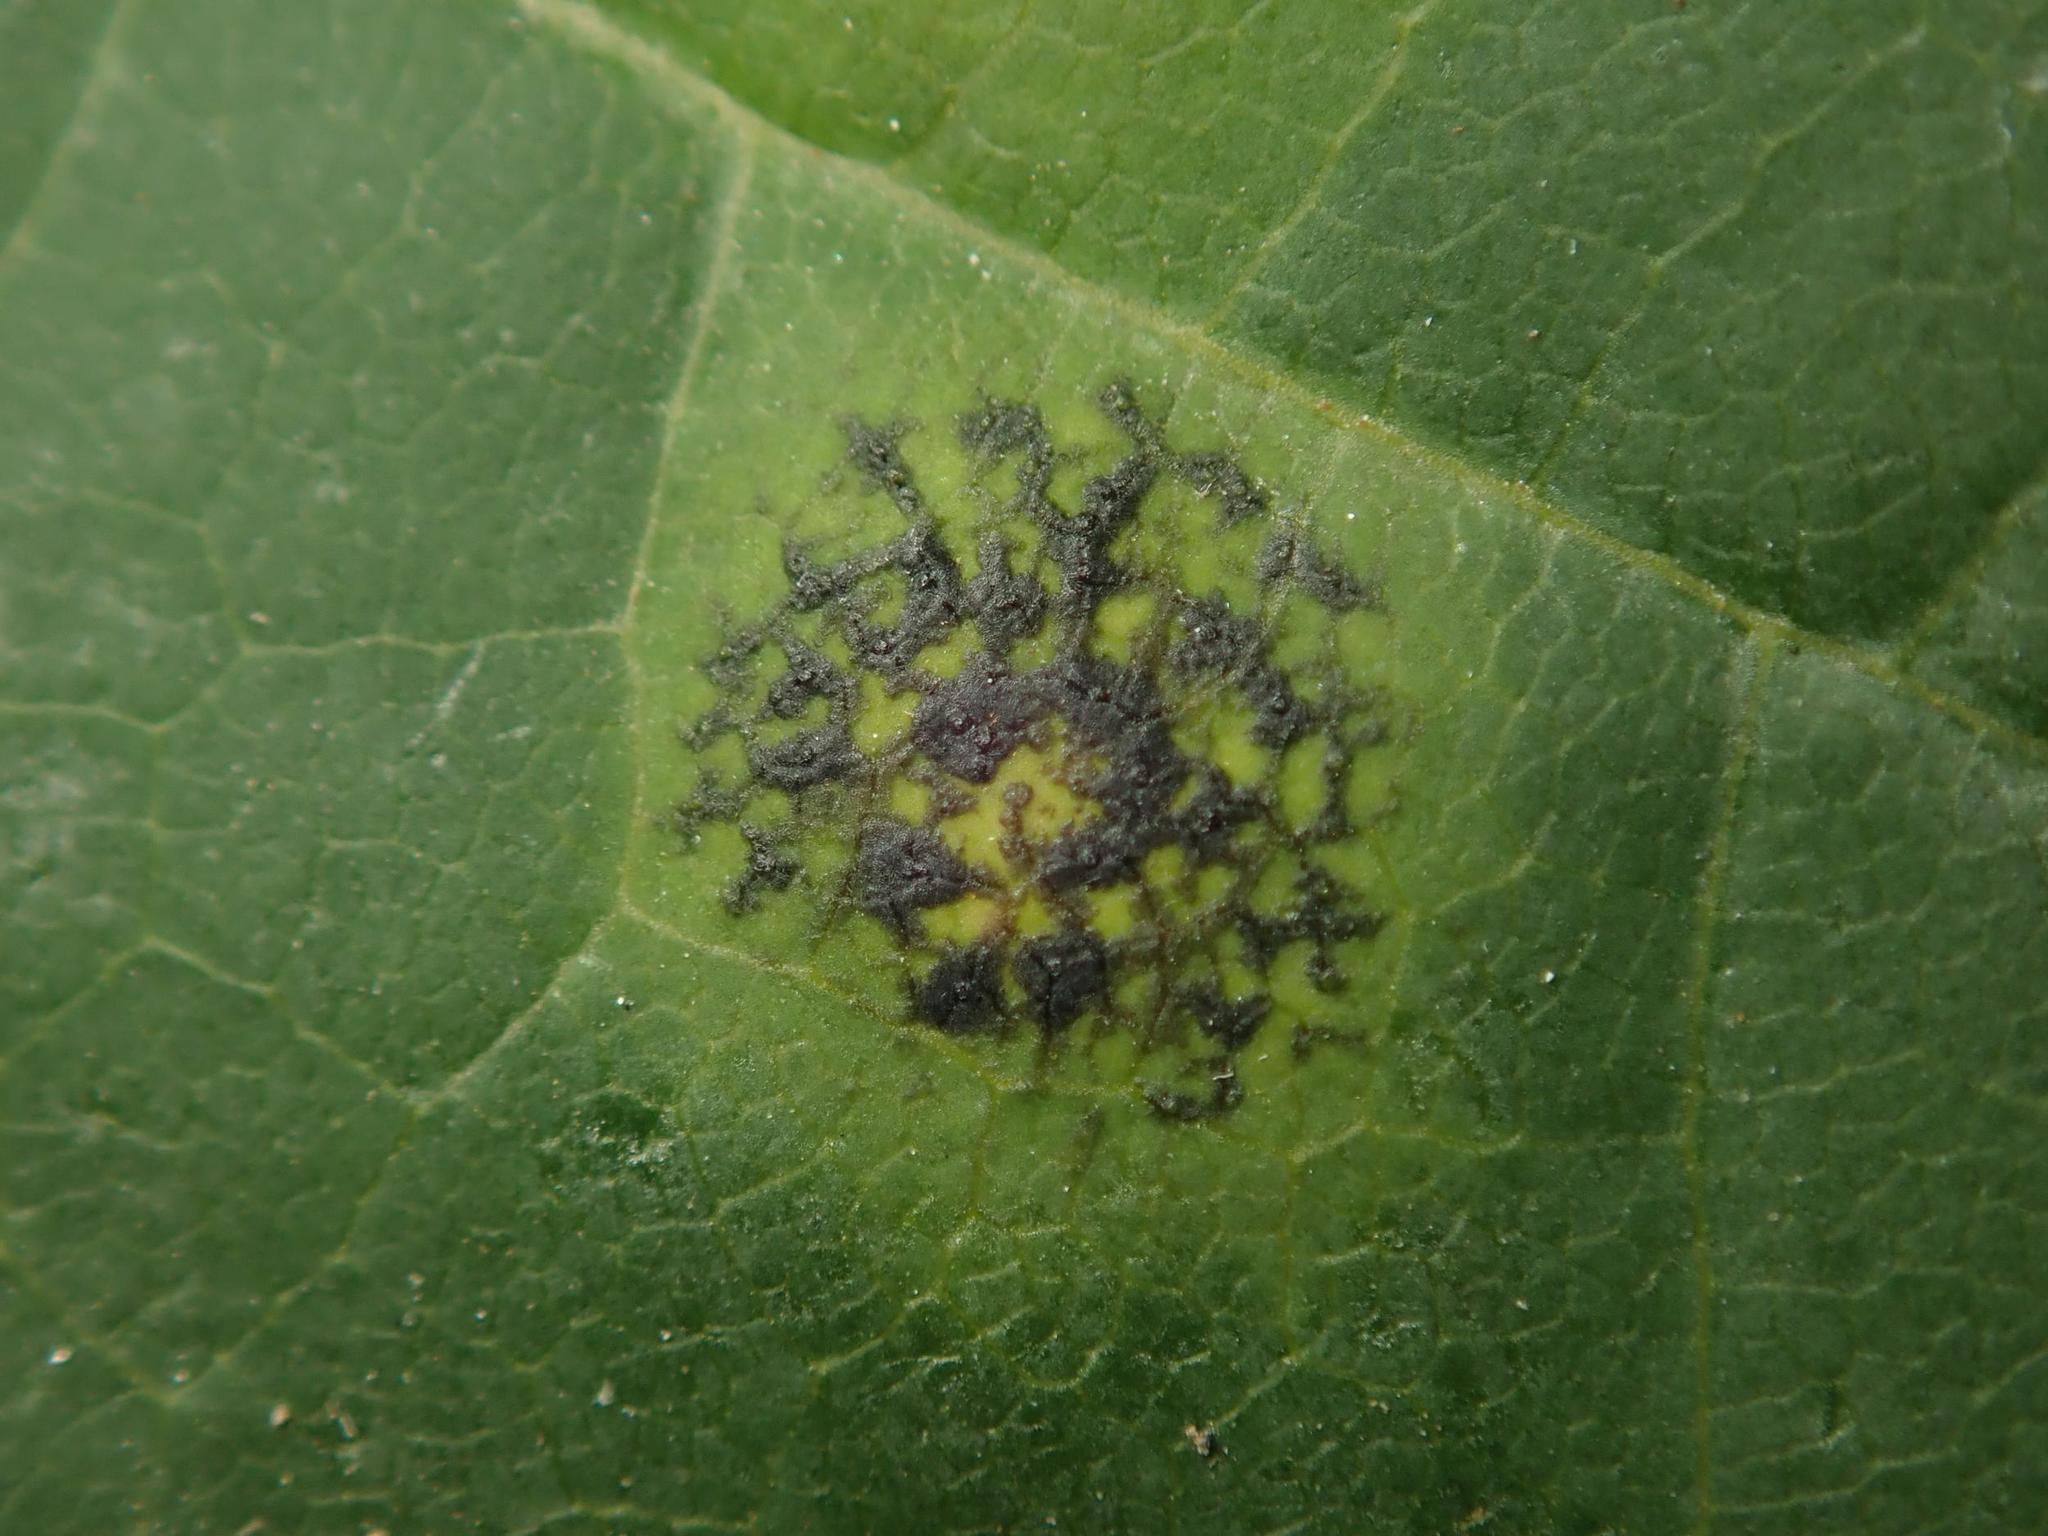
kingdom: Fungi
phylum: Ascomycota
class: Leotiomycetes
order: Rhytismatales
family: Rhytismataceae
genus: Rhytisma
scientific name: Rhytisma acerinum
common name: European tar spot
